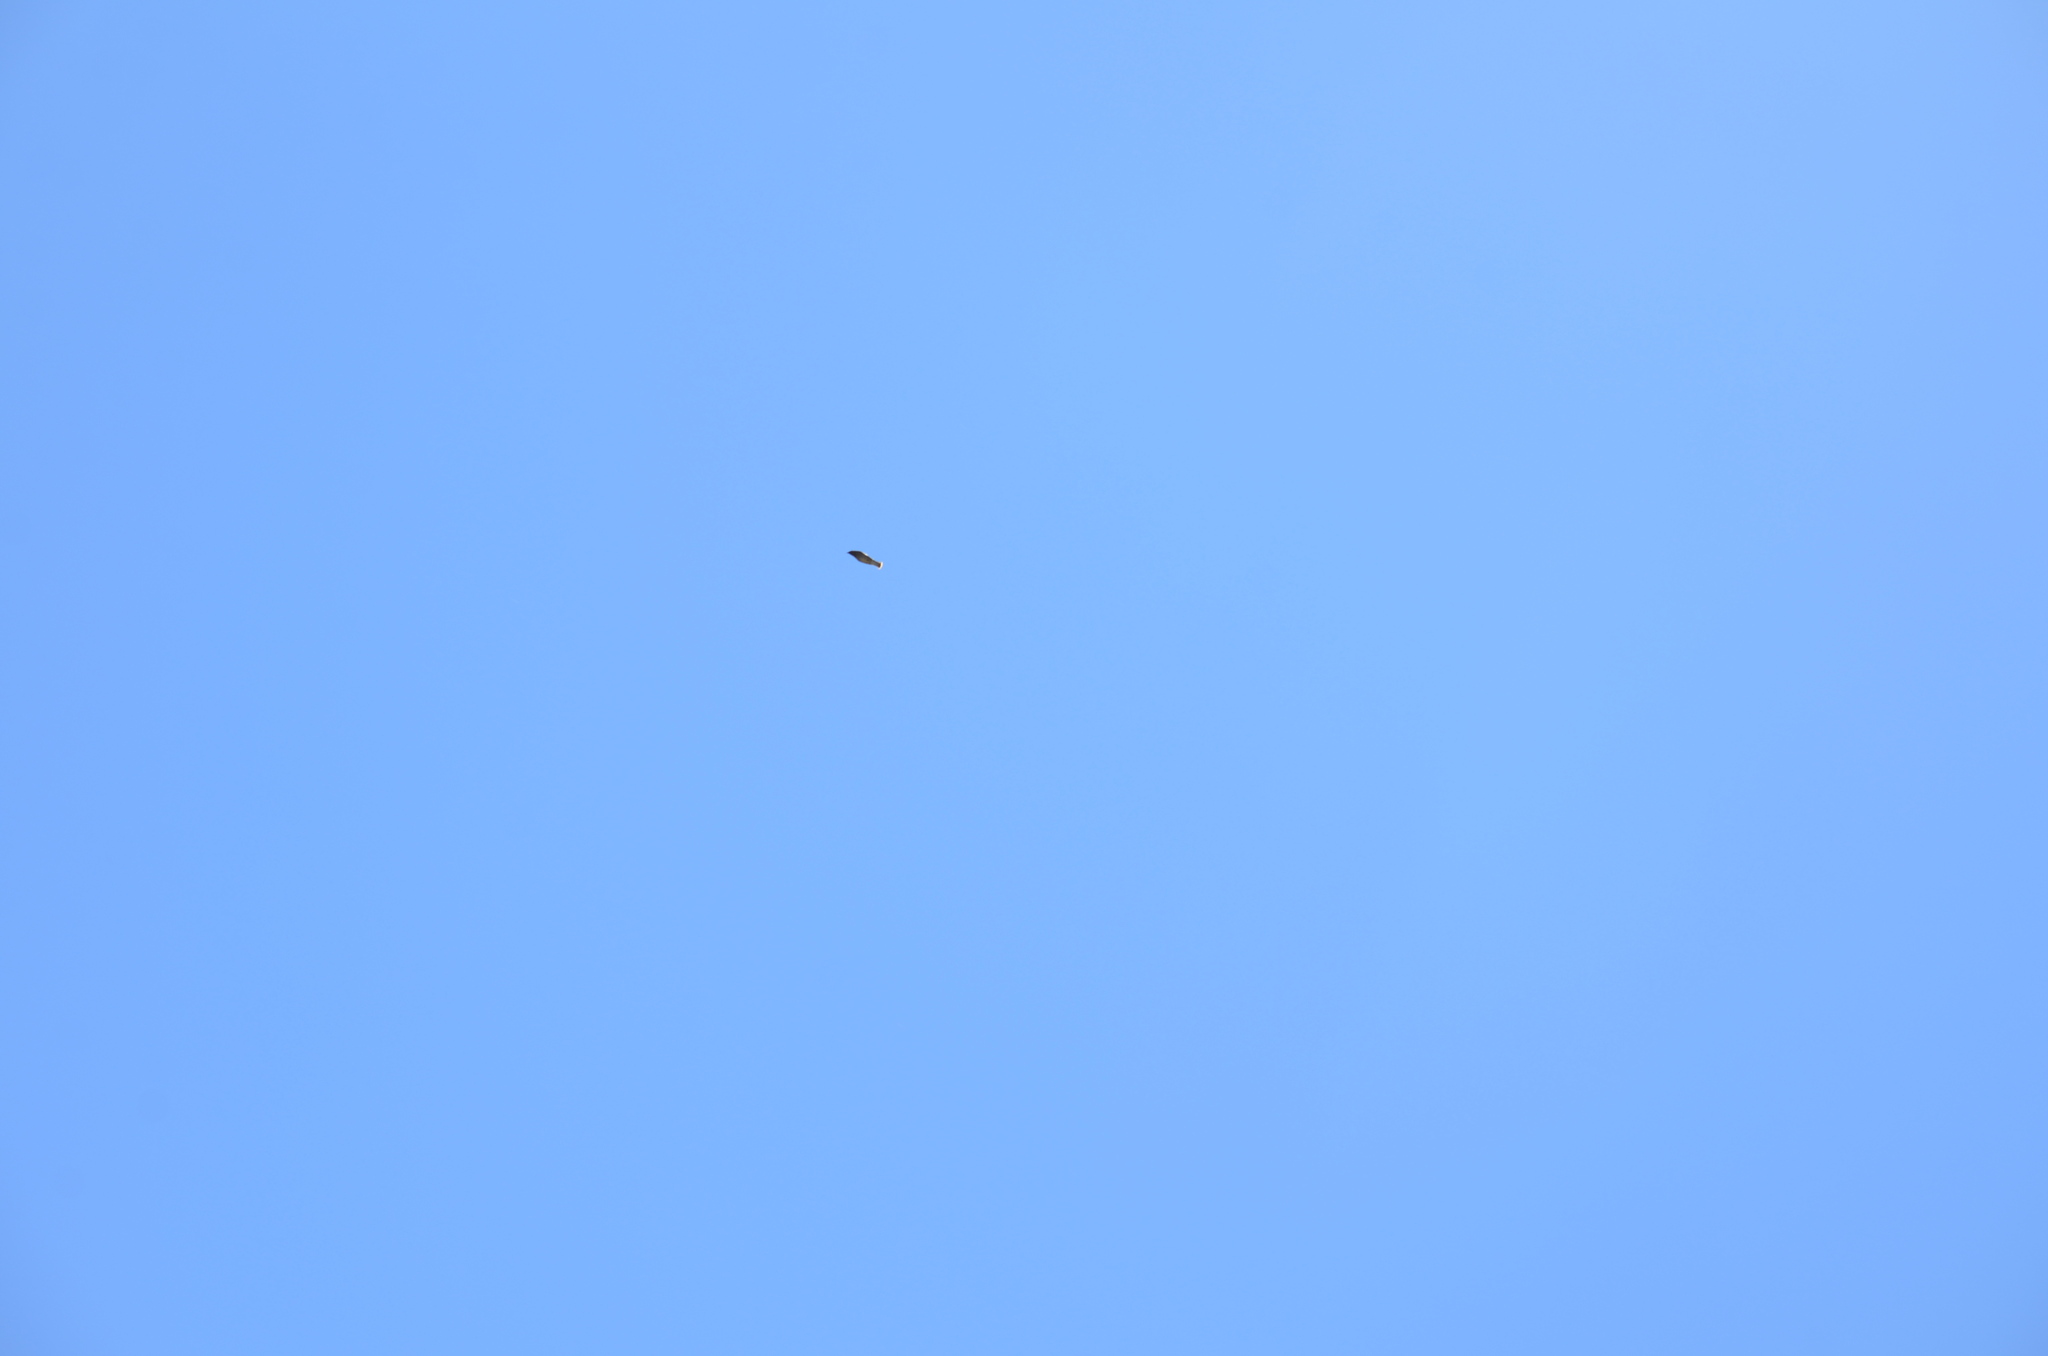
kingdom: Animalia
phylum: Chordata
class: Aves
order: Passeriformes
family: Bombycillidae
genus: Bombycilla
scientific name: Bombycilla cedrorum
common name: Cedar waxwing
